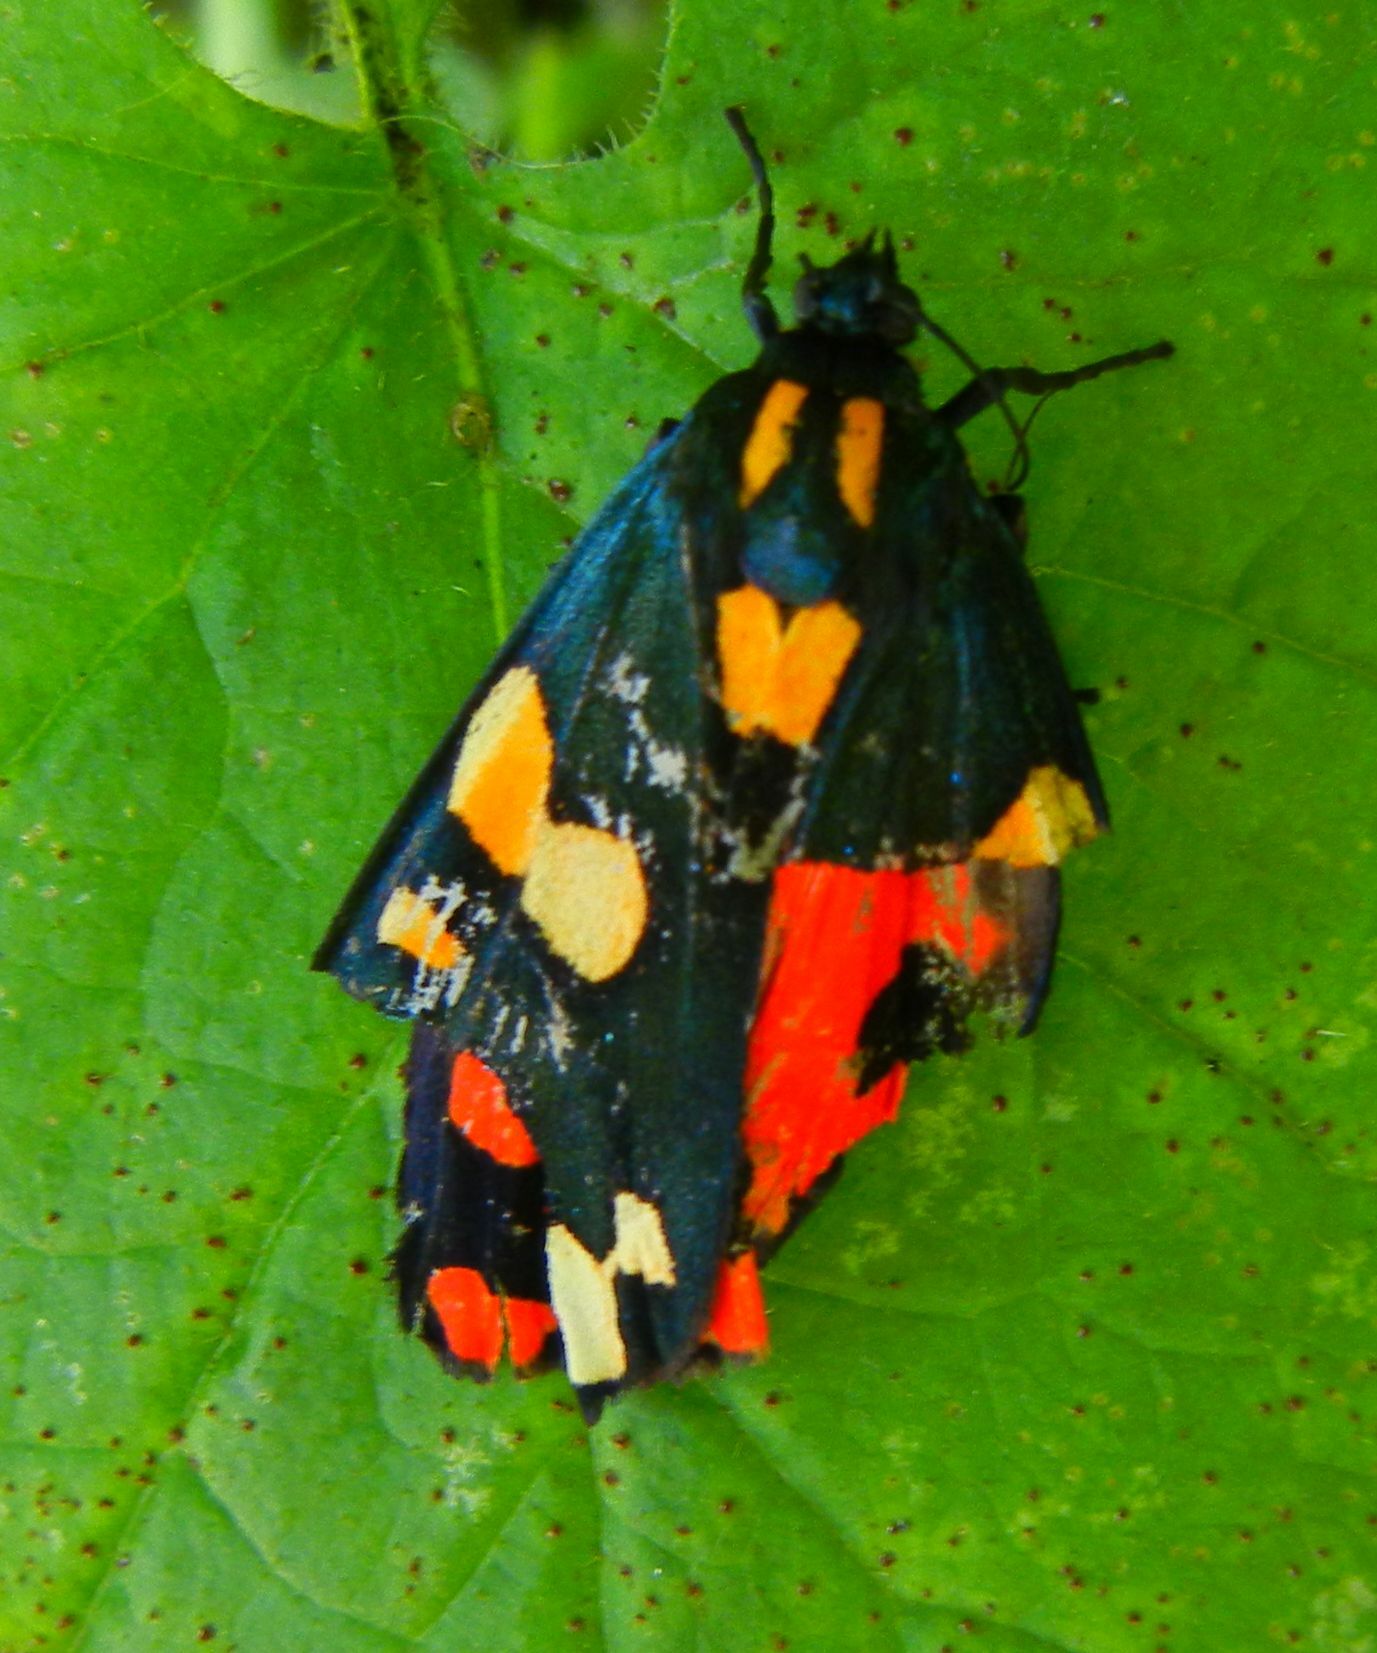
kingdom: Animalia
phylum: Arthropoda
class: Insecta
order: Lepidoptera
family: Erebidae
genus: Callimorpha
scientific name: Callimorpha dominula
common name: Scarlet tiger
